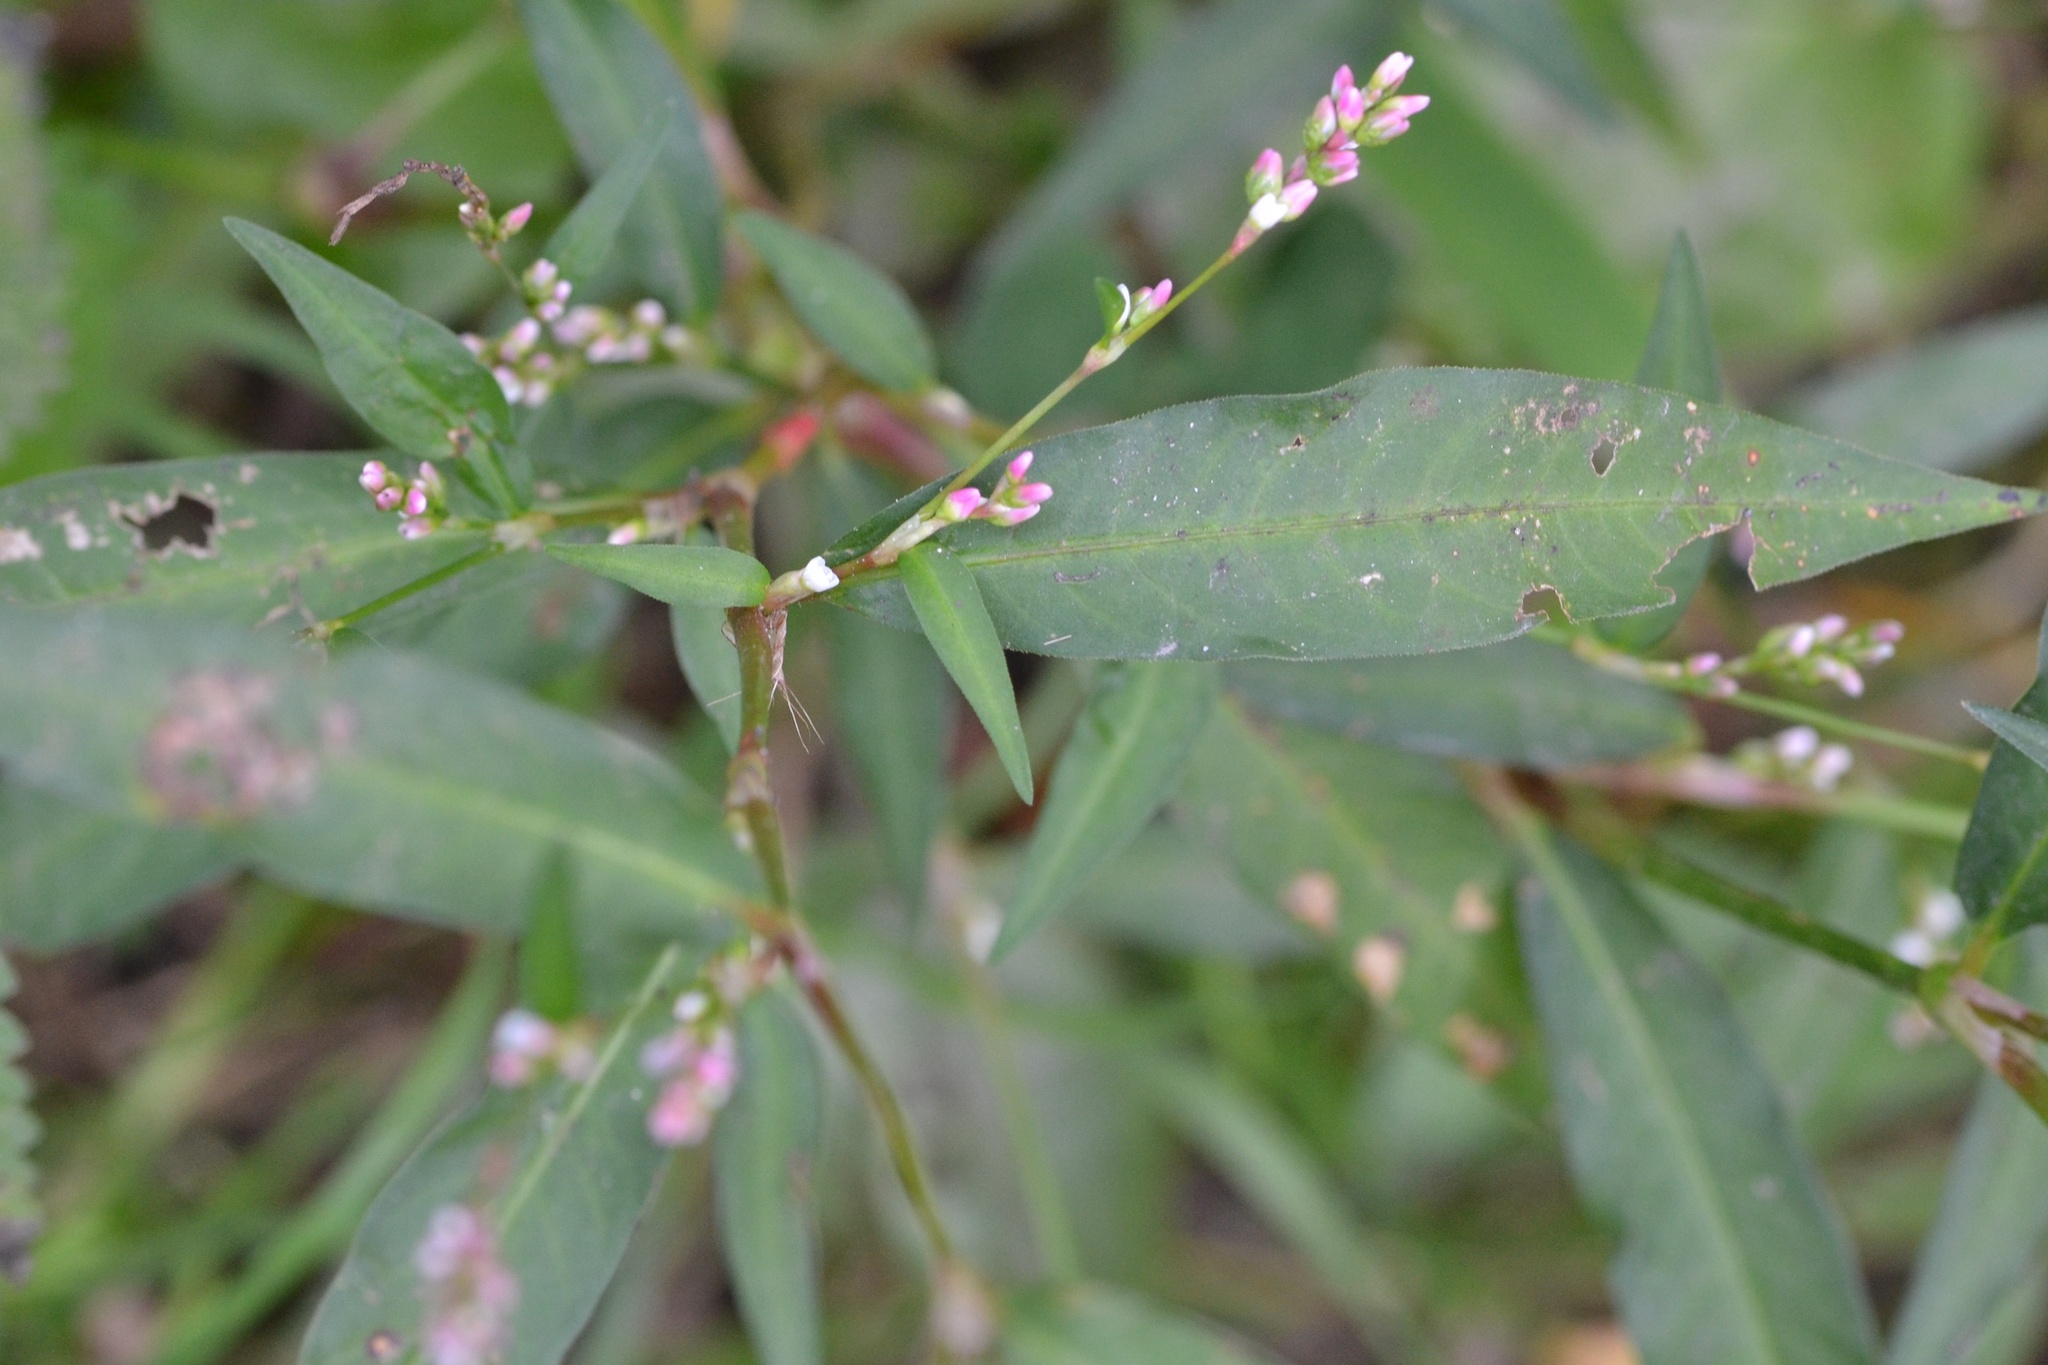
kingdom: Plantae
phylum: Tracheophyta
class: Magnoliopsida
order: Caryophyllales
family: Polygonaceae
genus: Persicaria
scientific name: Persicaria mitis
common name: Tasteless water-pepper
